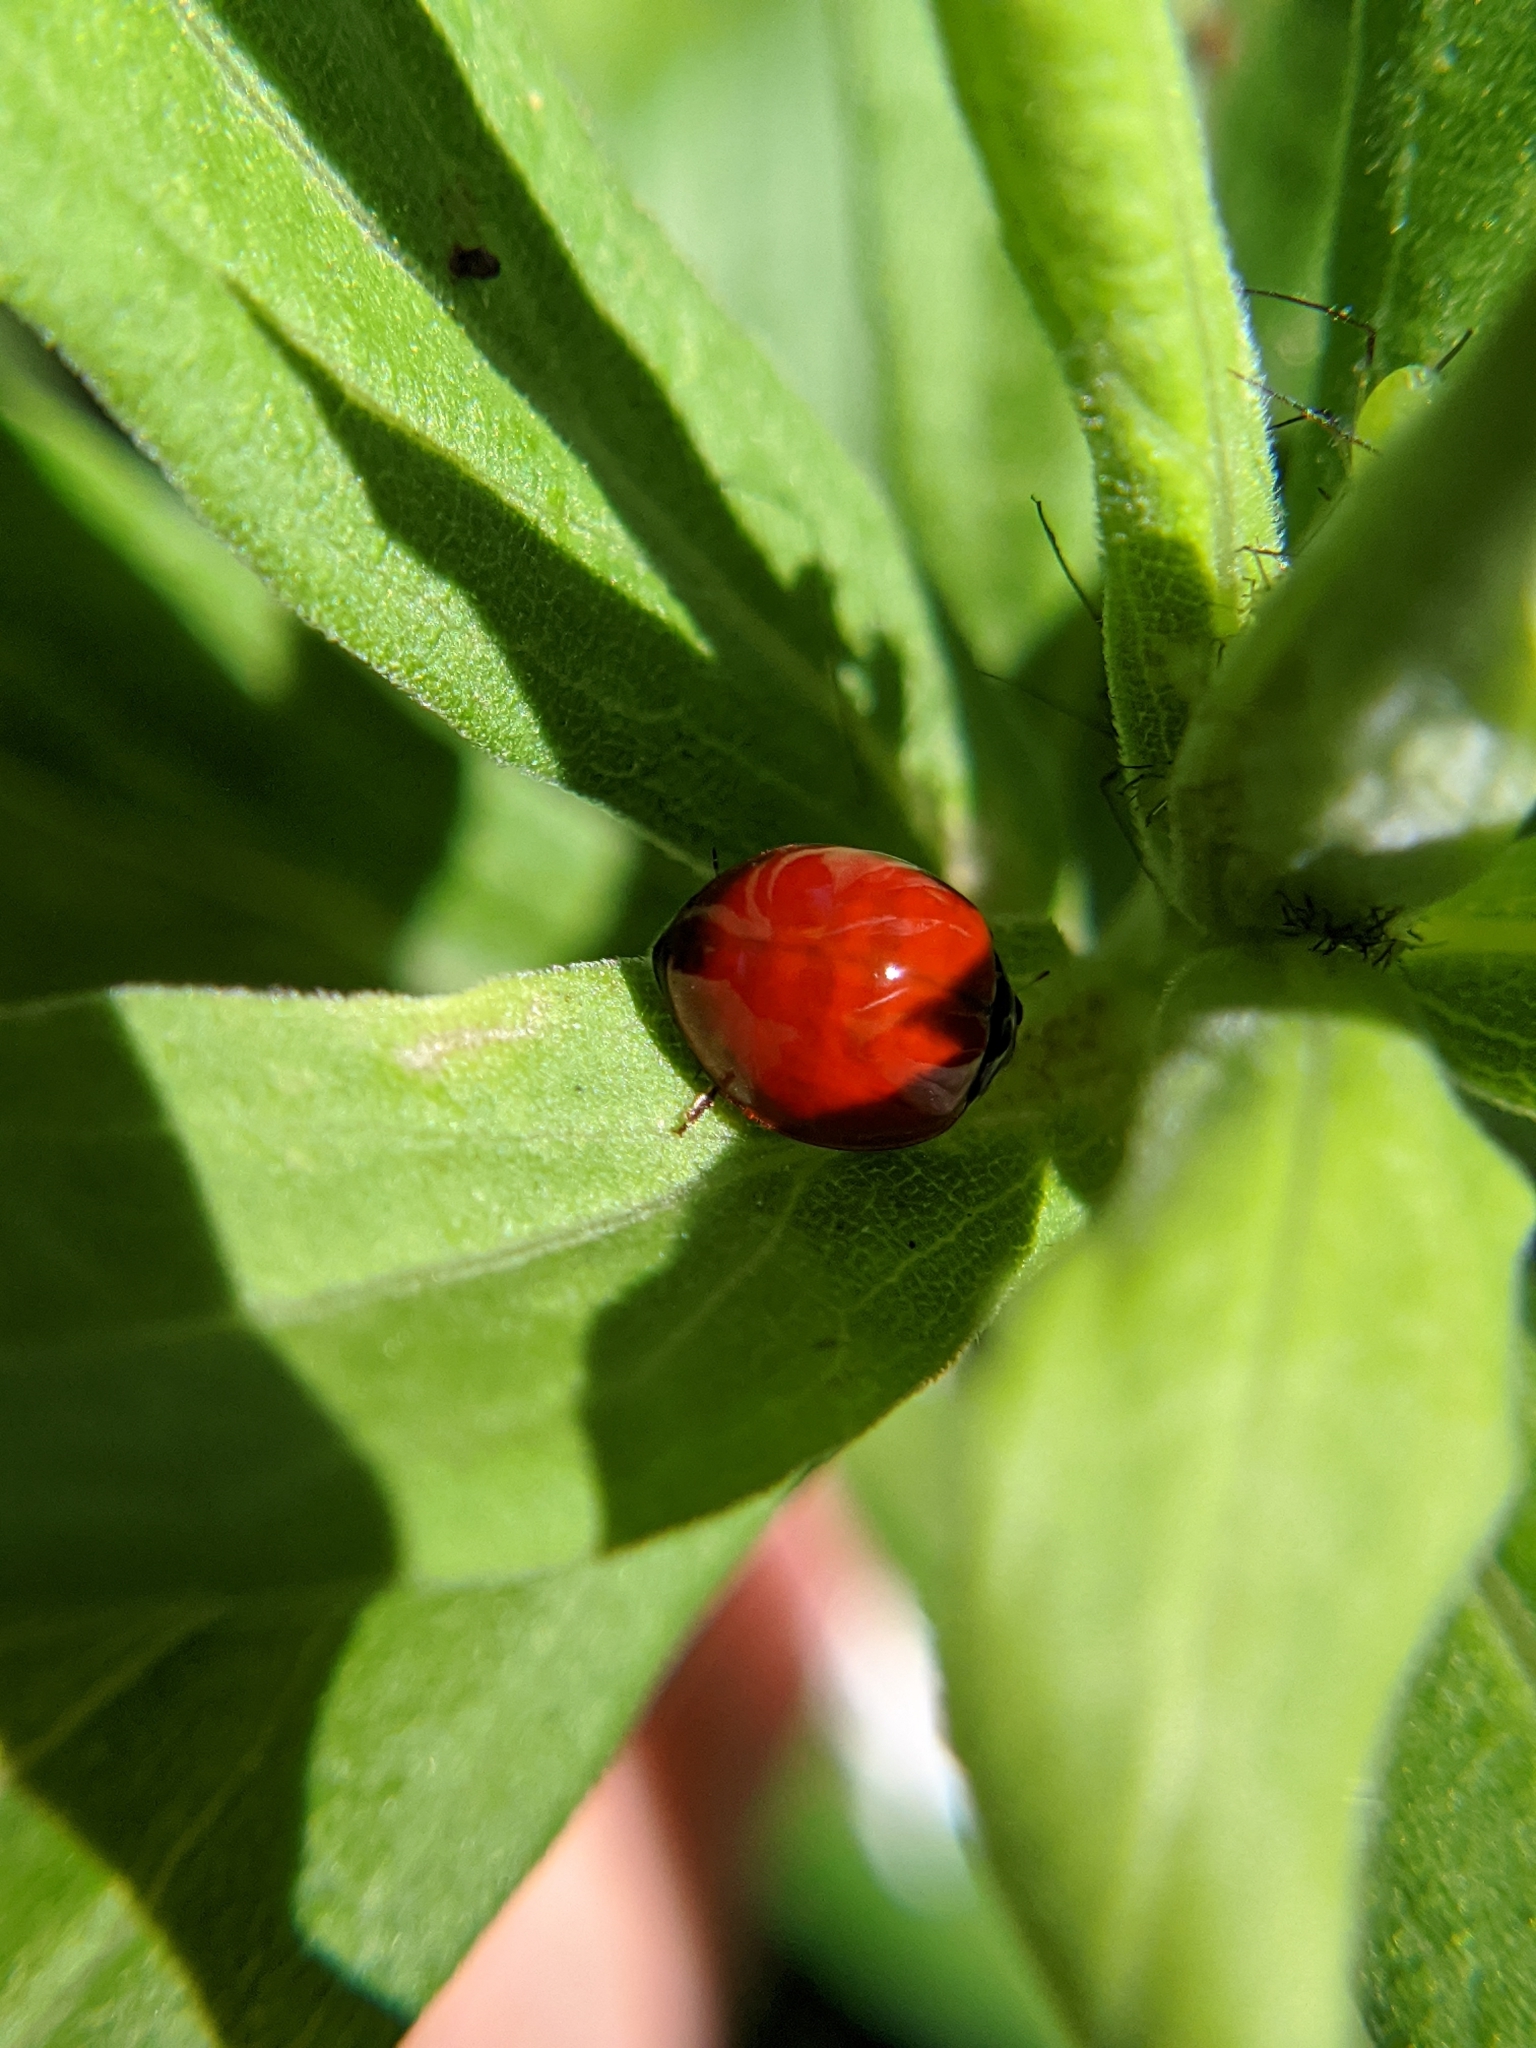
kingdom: Animalia
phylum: Arthropoda
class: Insecta
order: Coleoptera
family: Coccinellidae
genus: Cycloneda
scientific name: Cycloneda sanguinea
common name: Ladybird beetle
